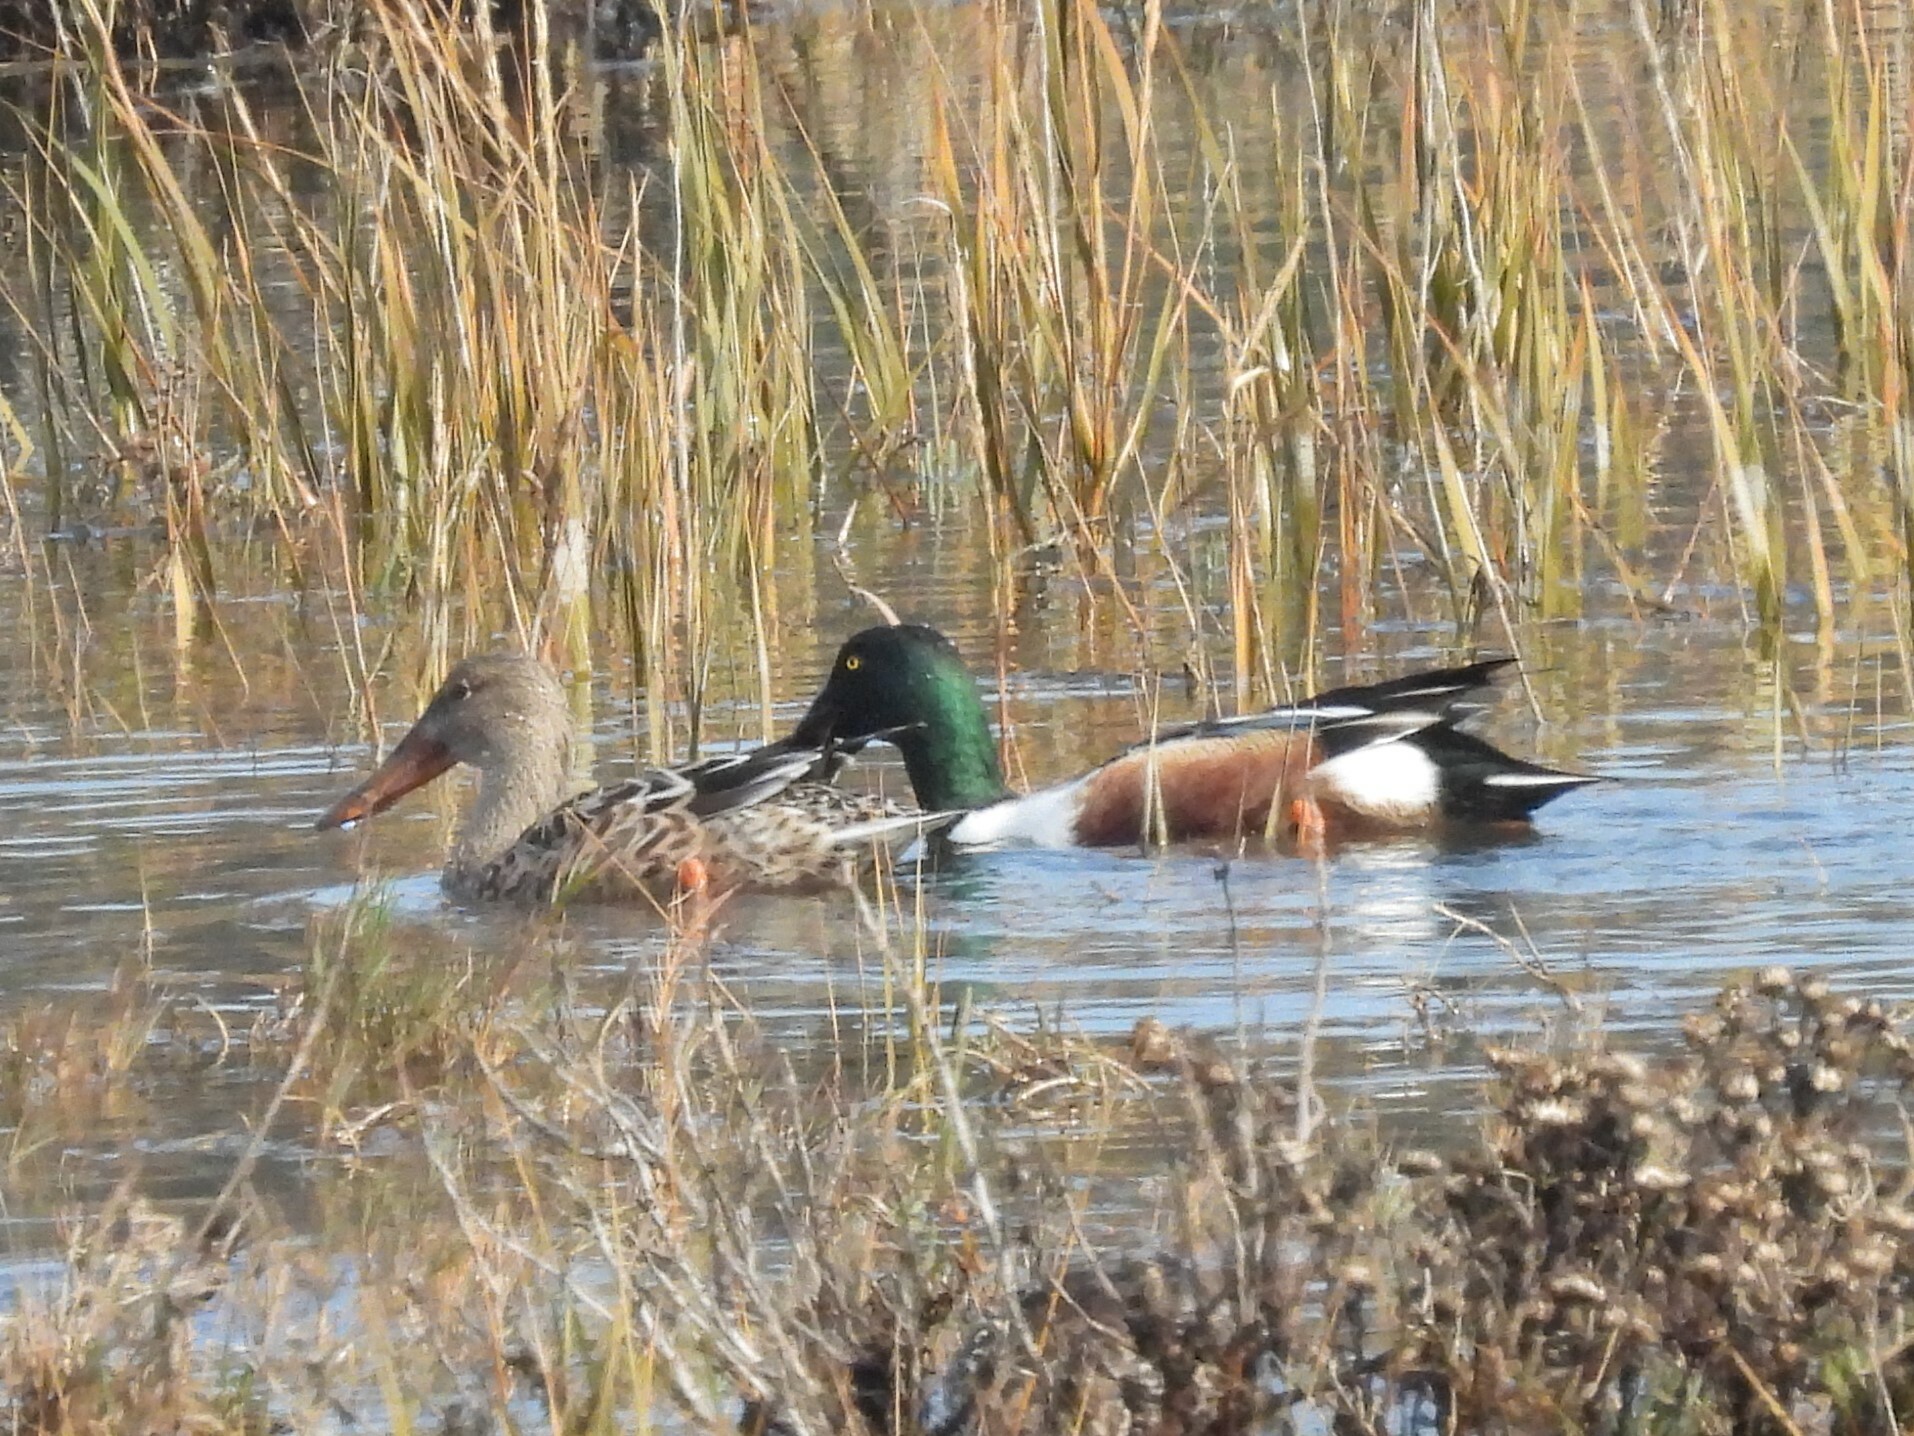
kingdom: Animalia
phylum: Chordata
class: Aves
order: Anseriformes
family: Anatidae
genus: Spatula
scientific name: Spatula clypeata
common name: Northern shoveler
